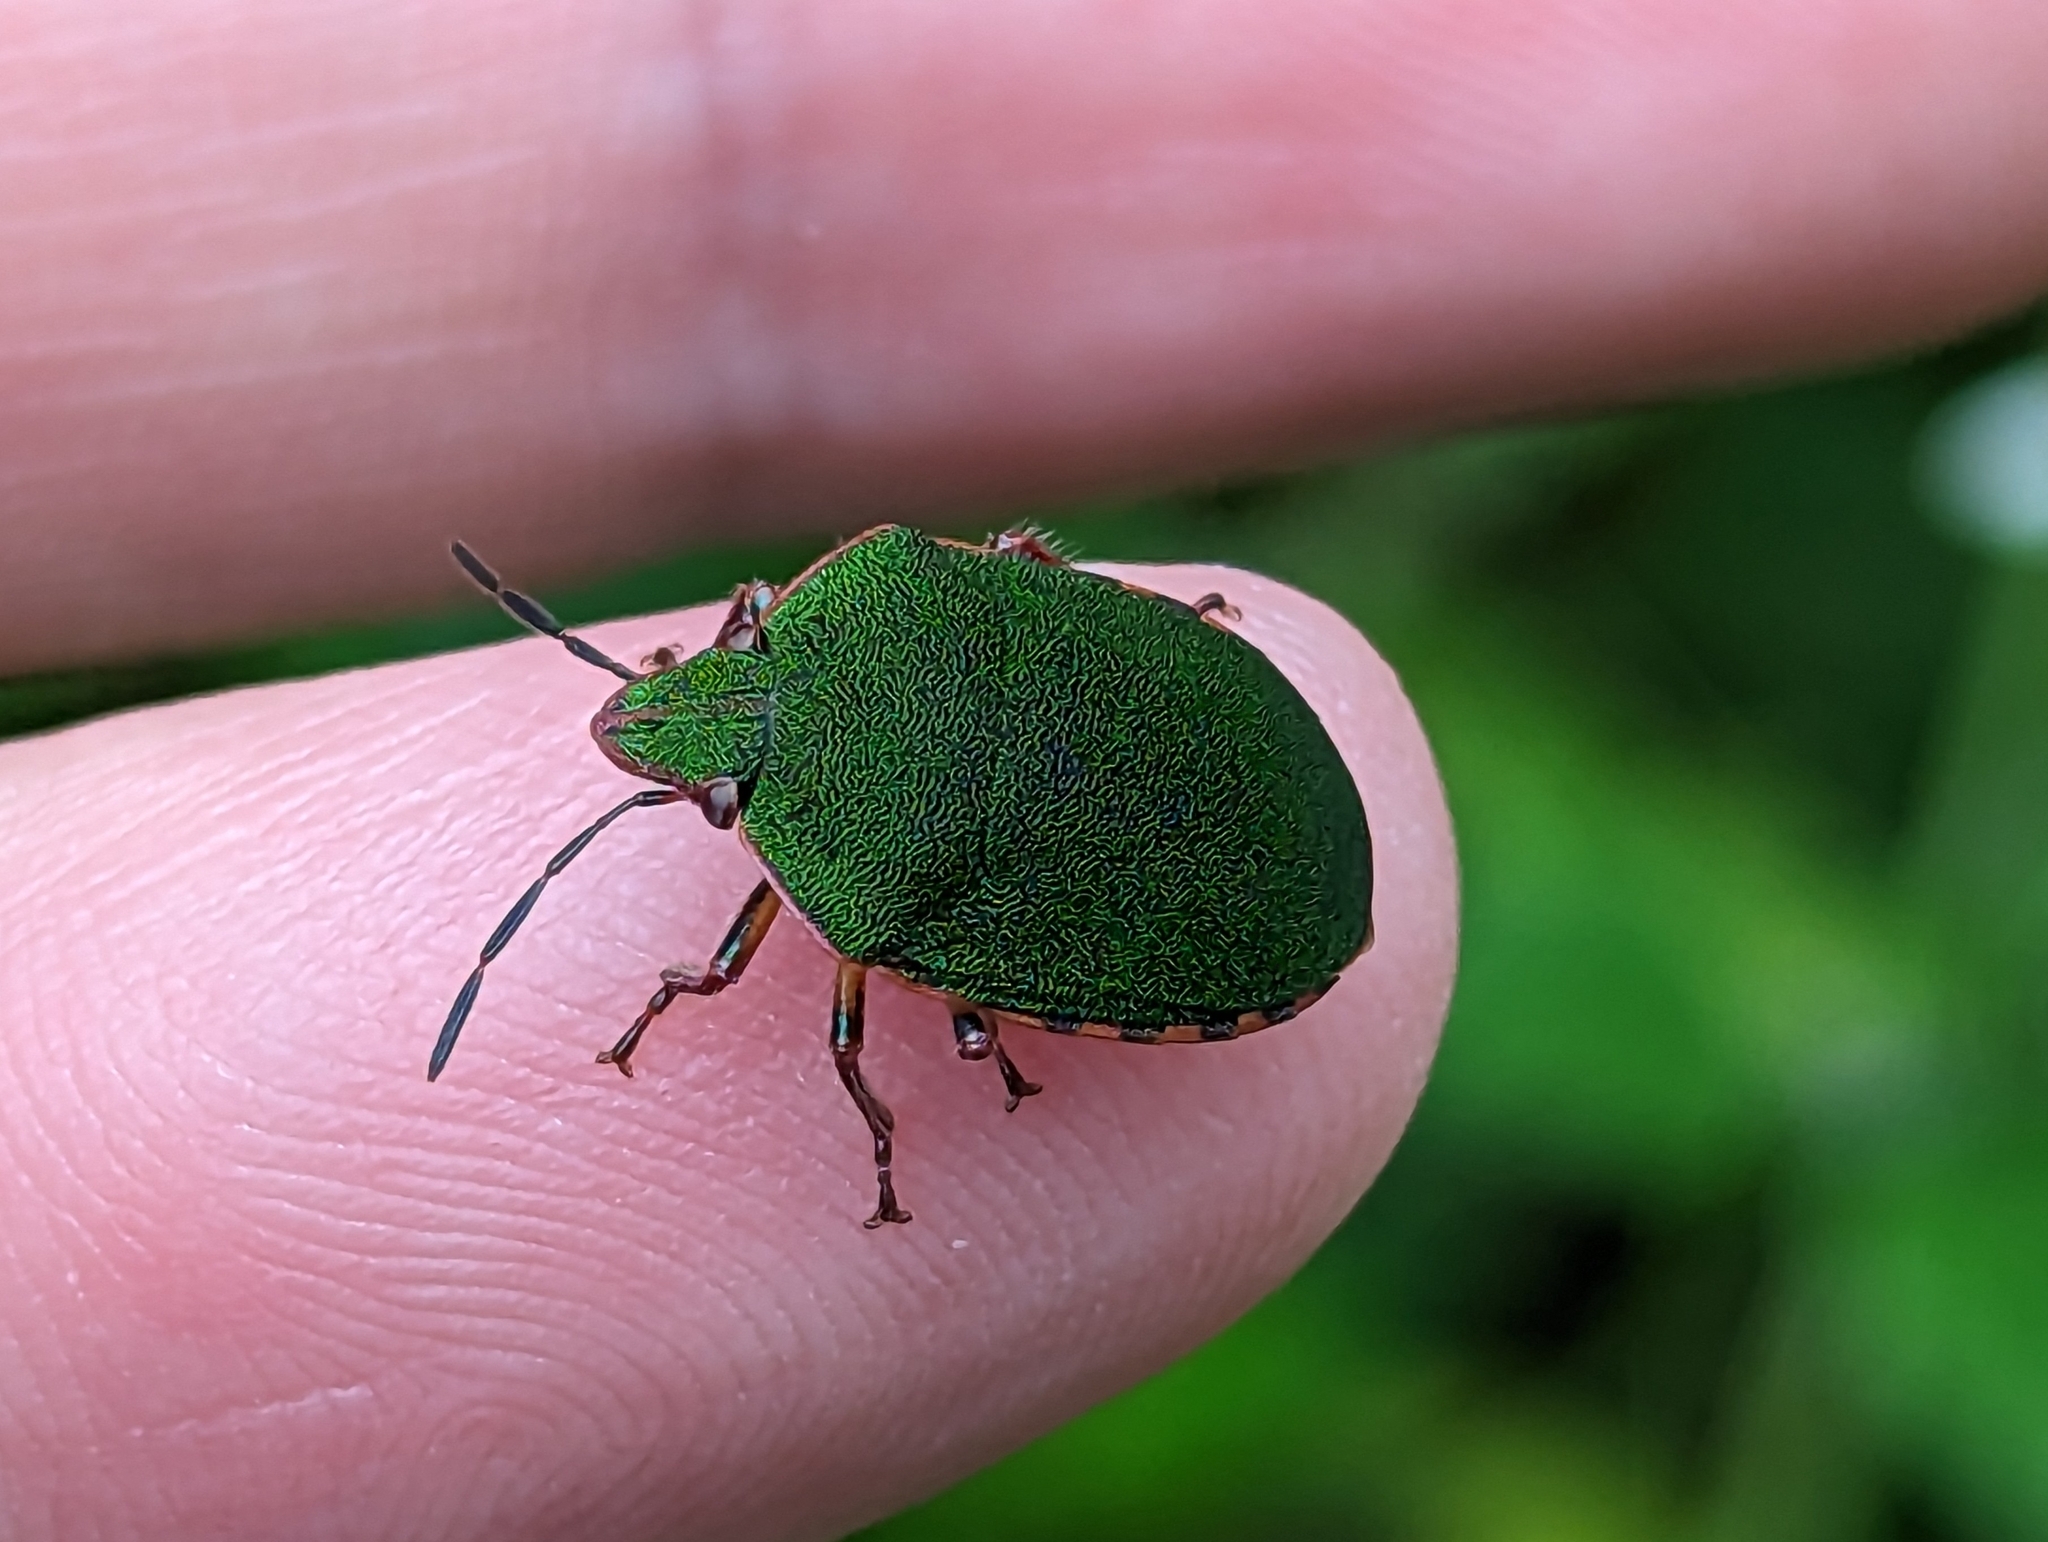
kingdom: Animalia
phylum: Arthropoda
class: Insecta
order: Hemiptera
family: Scutelleridae
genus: Polytes
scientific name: Polytes
